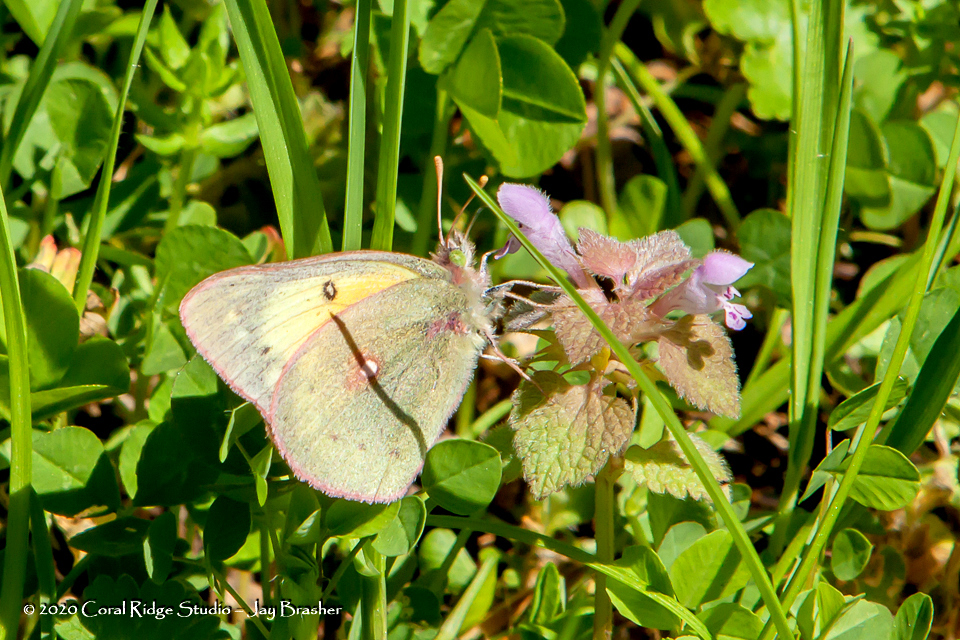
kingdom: Animalia
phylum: Arthropoda
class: Insecta
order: Lepidoptera
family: Pieridae
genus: Colias
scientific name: Colias eurytheme
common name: Alfalfa butterfly
